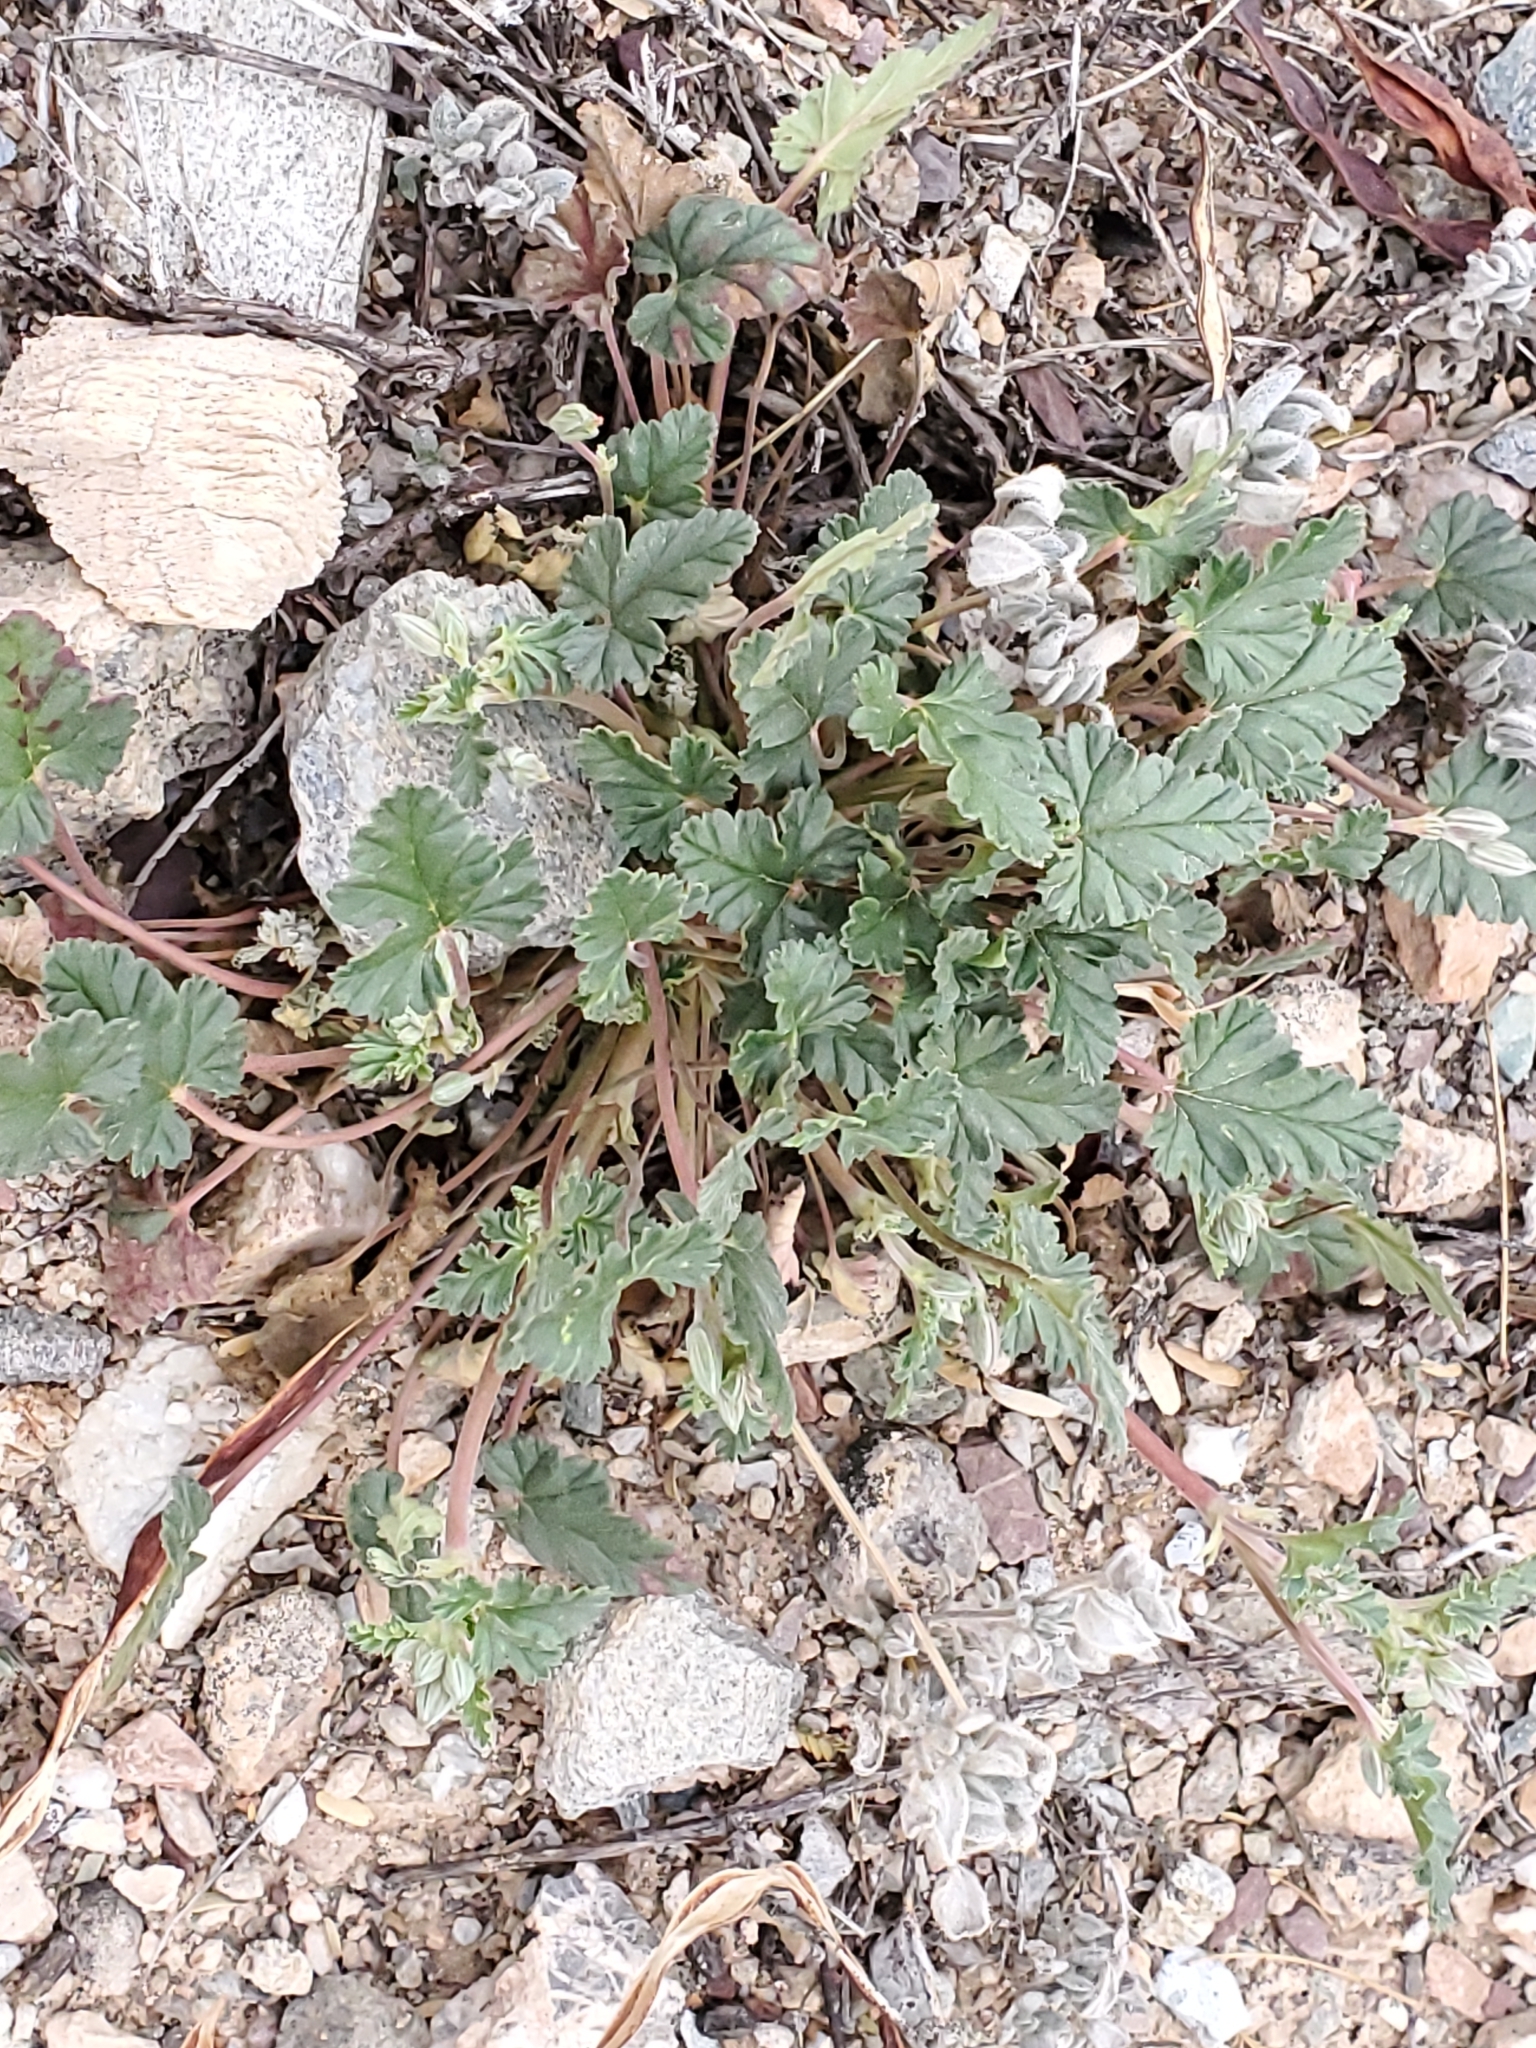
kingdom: Plantae
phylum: Tracheophyta
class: Magnoliopsida
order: Geraniales
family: Geraniaceae
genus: Erodium
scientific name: Erodium texanum
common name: Texas stork's-bill
